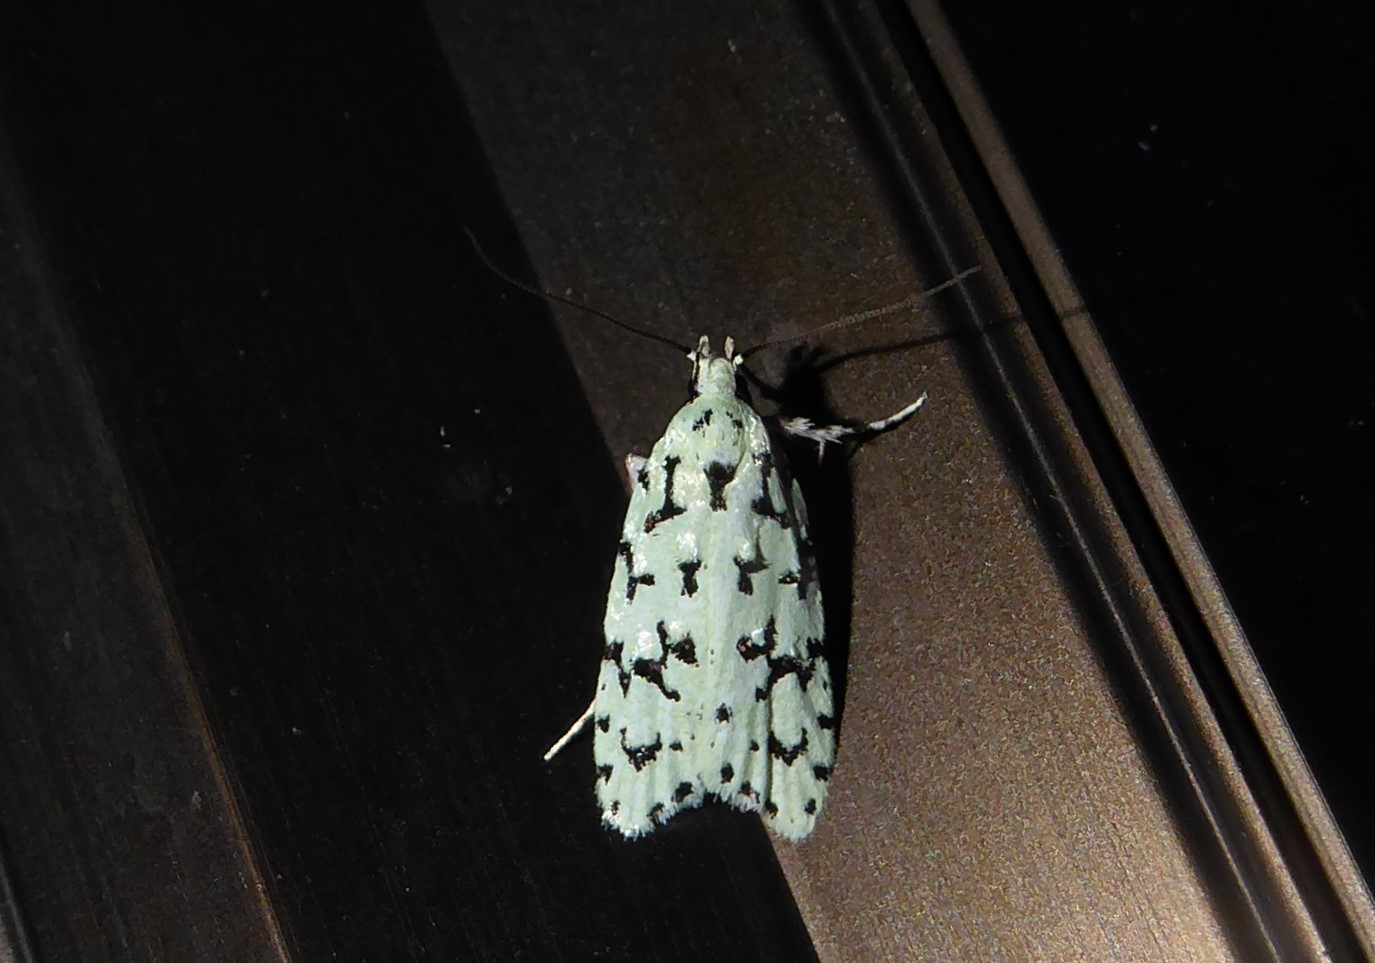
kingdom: Animalia
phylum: Arthropoda
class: Insecta
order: Lepidoptera
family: Oecophoridae
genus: Izatha
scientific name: Izatha huttoni
